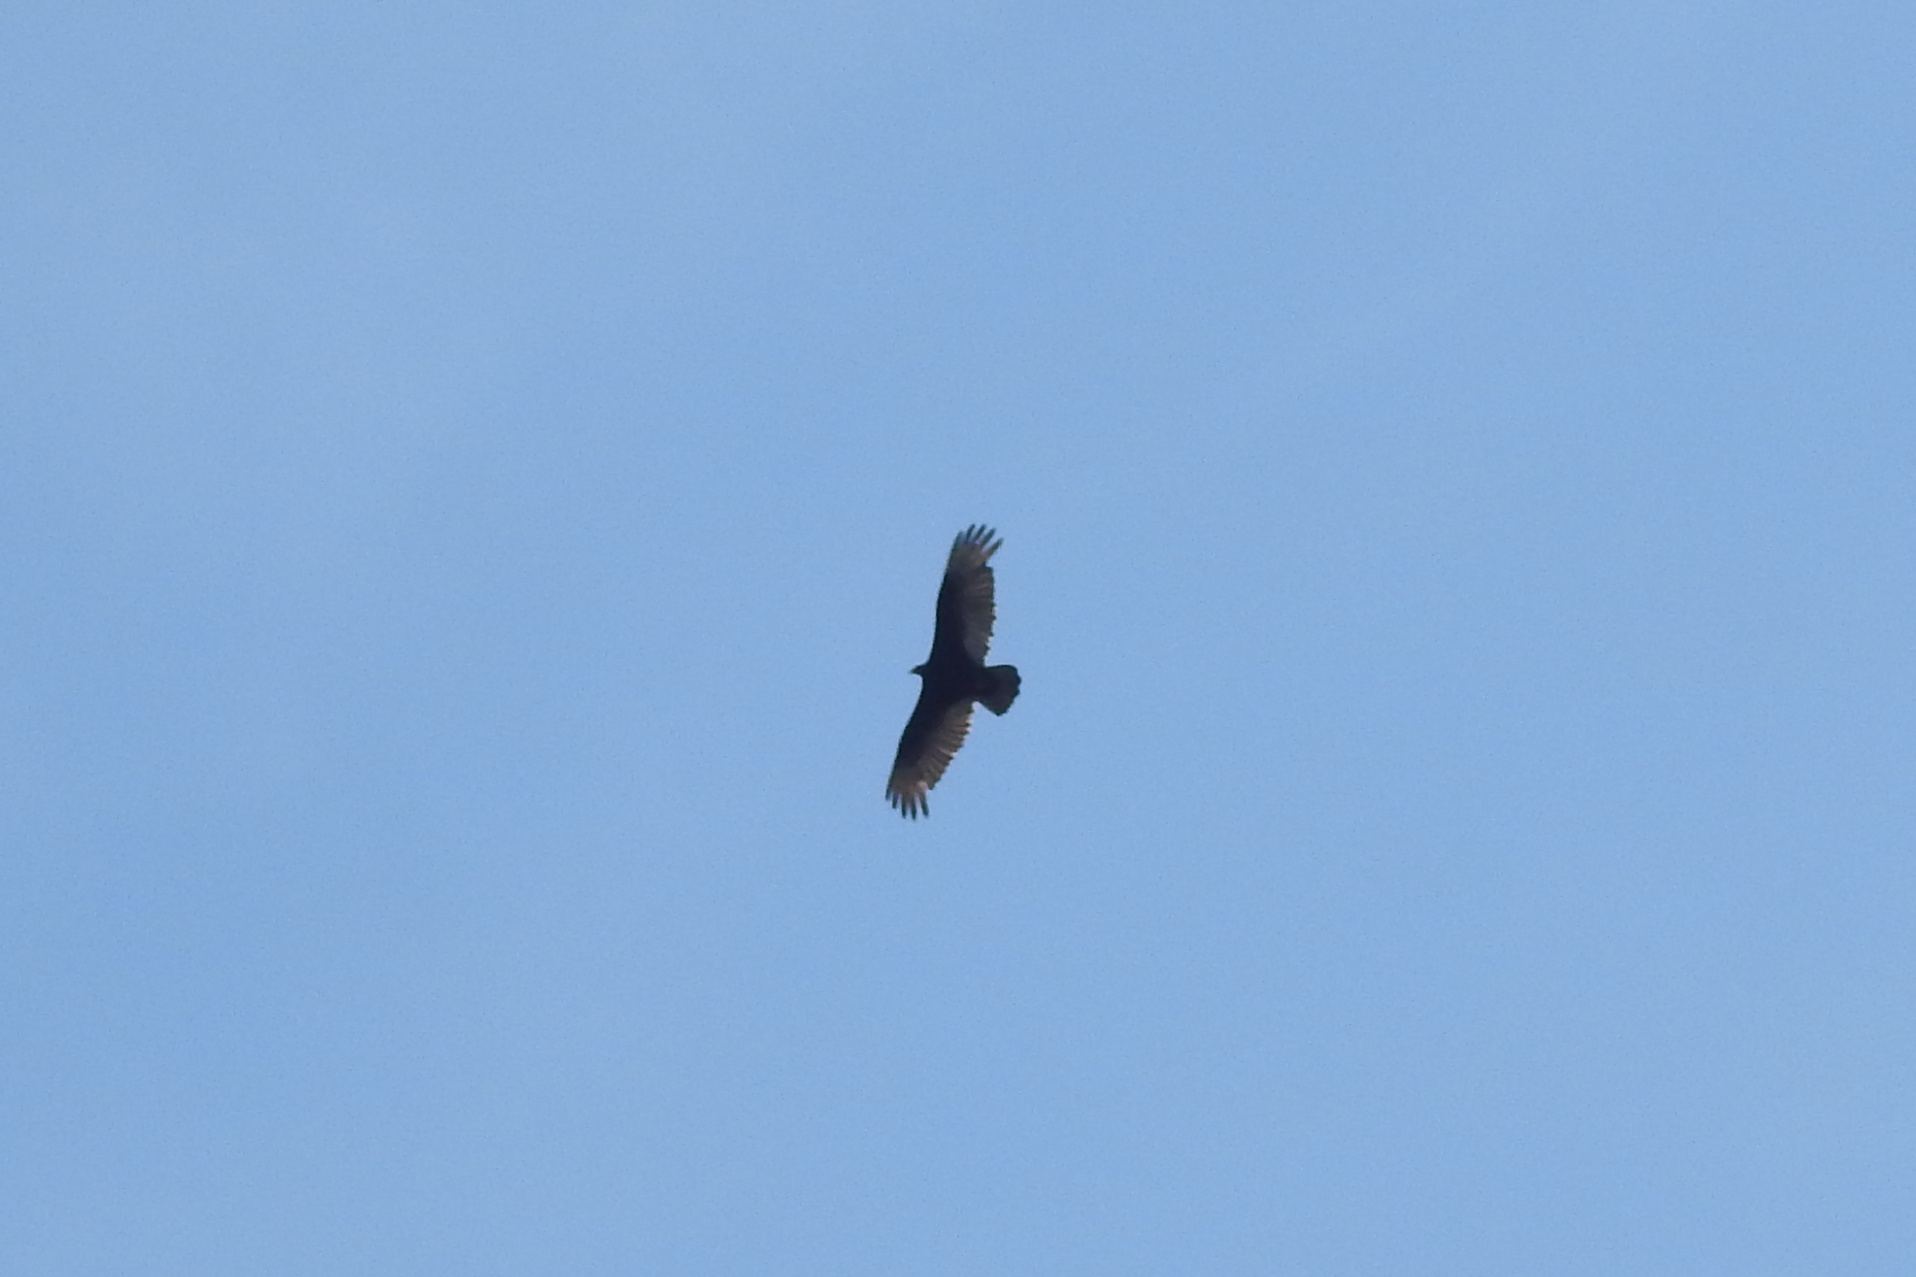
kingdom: Animalia
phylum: Chordata
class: Aves
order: Accipitriformes
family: Cathartidae
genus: Cathartes
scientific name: Cathartes aura
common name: Turkey vulture
